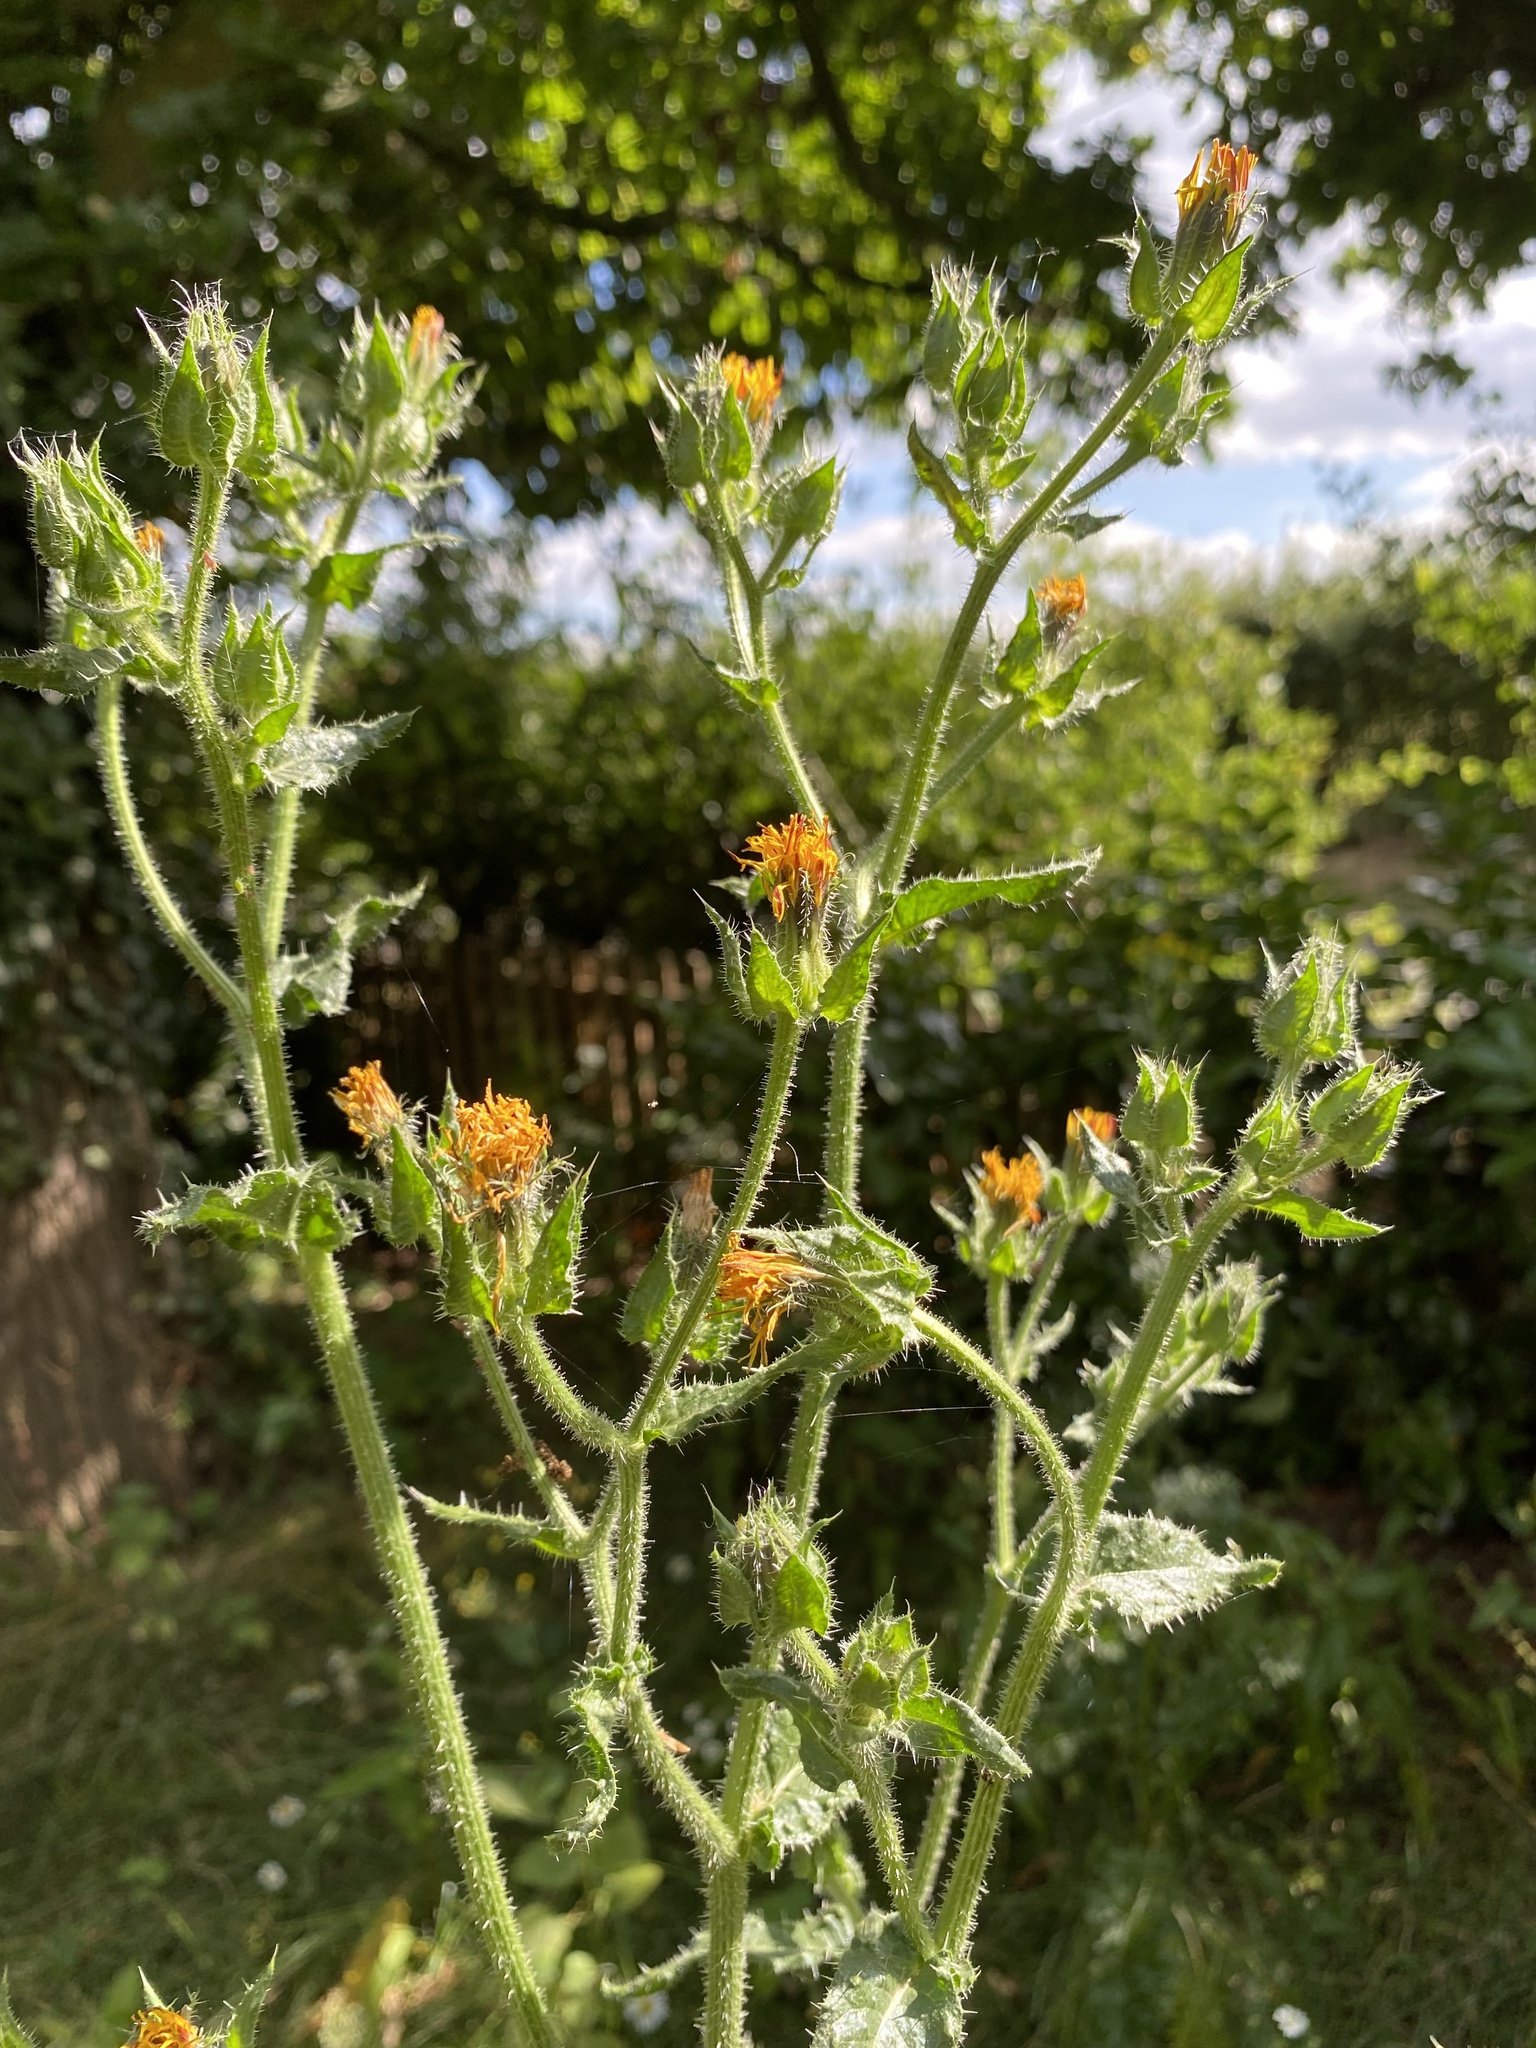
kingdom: Plantae
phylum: Tracheophyta
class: Magnoliopsida
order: Asterales
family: Asteraceae
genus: Helminthotheca
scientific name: Helminthotheca echioides
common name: Ox-tongue
